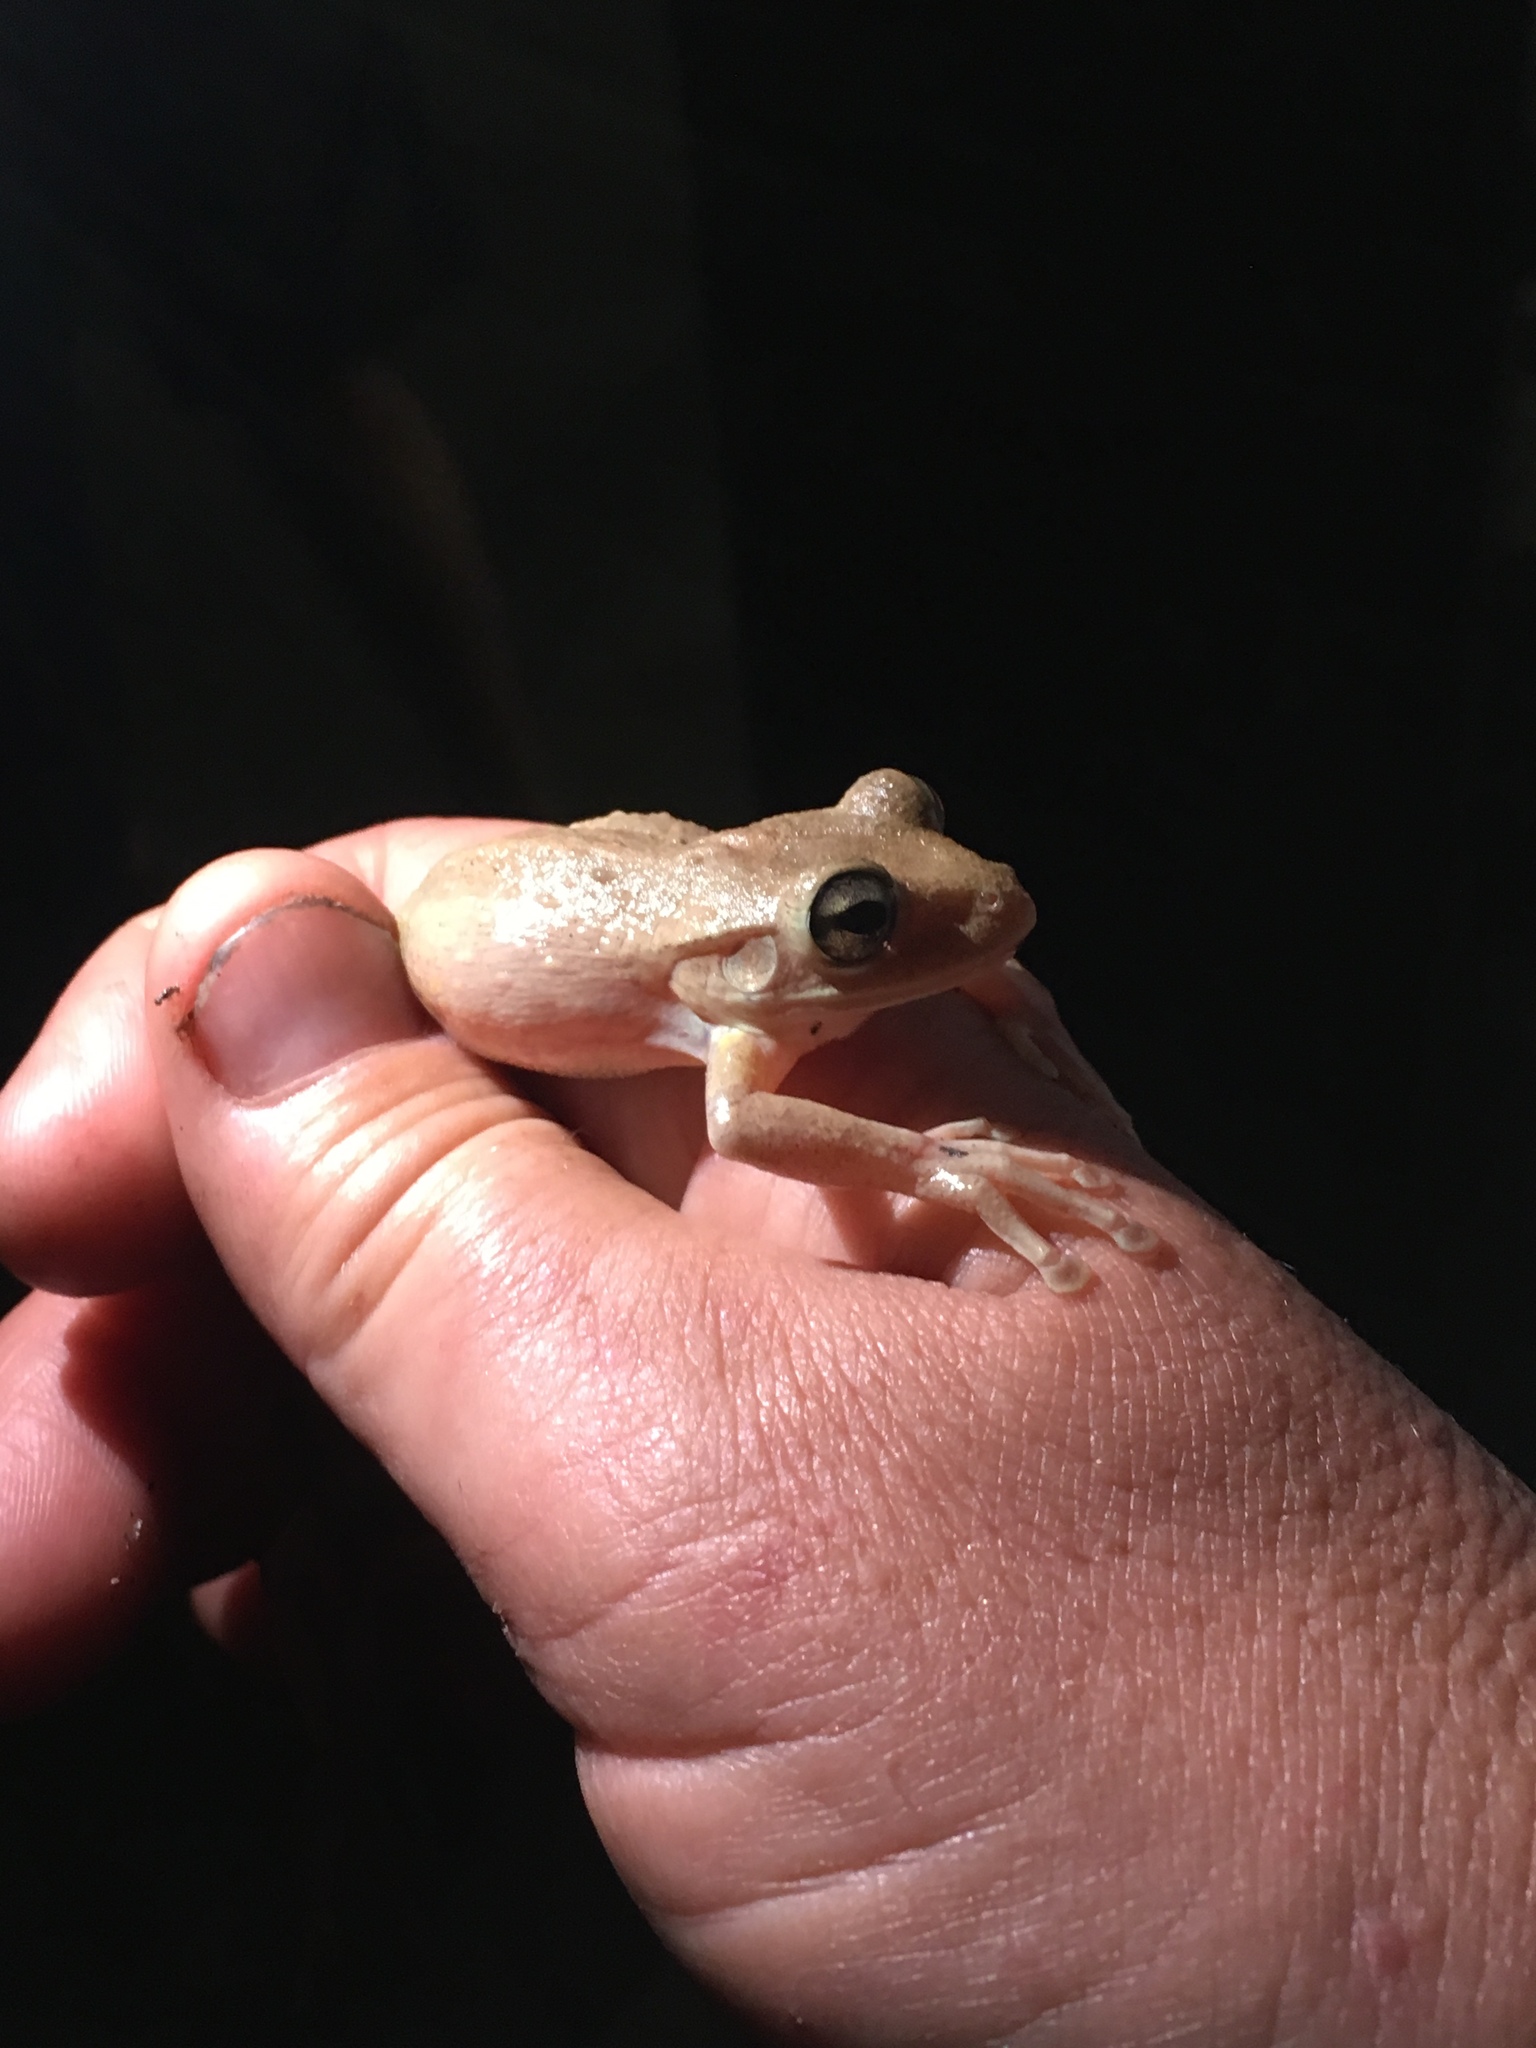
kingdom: Animalia
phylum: Chordata
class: Amphibia
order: Anura
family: Hylidae
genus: Osteopilus
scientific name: Osteopilus septentrionalis
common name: Cuban treefrog
